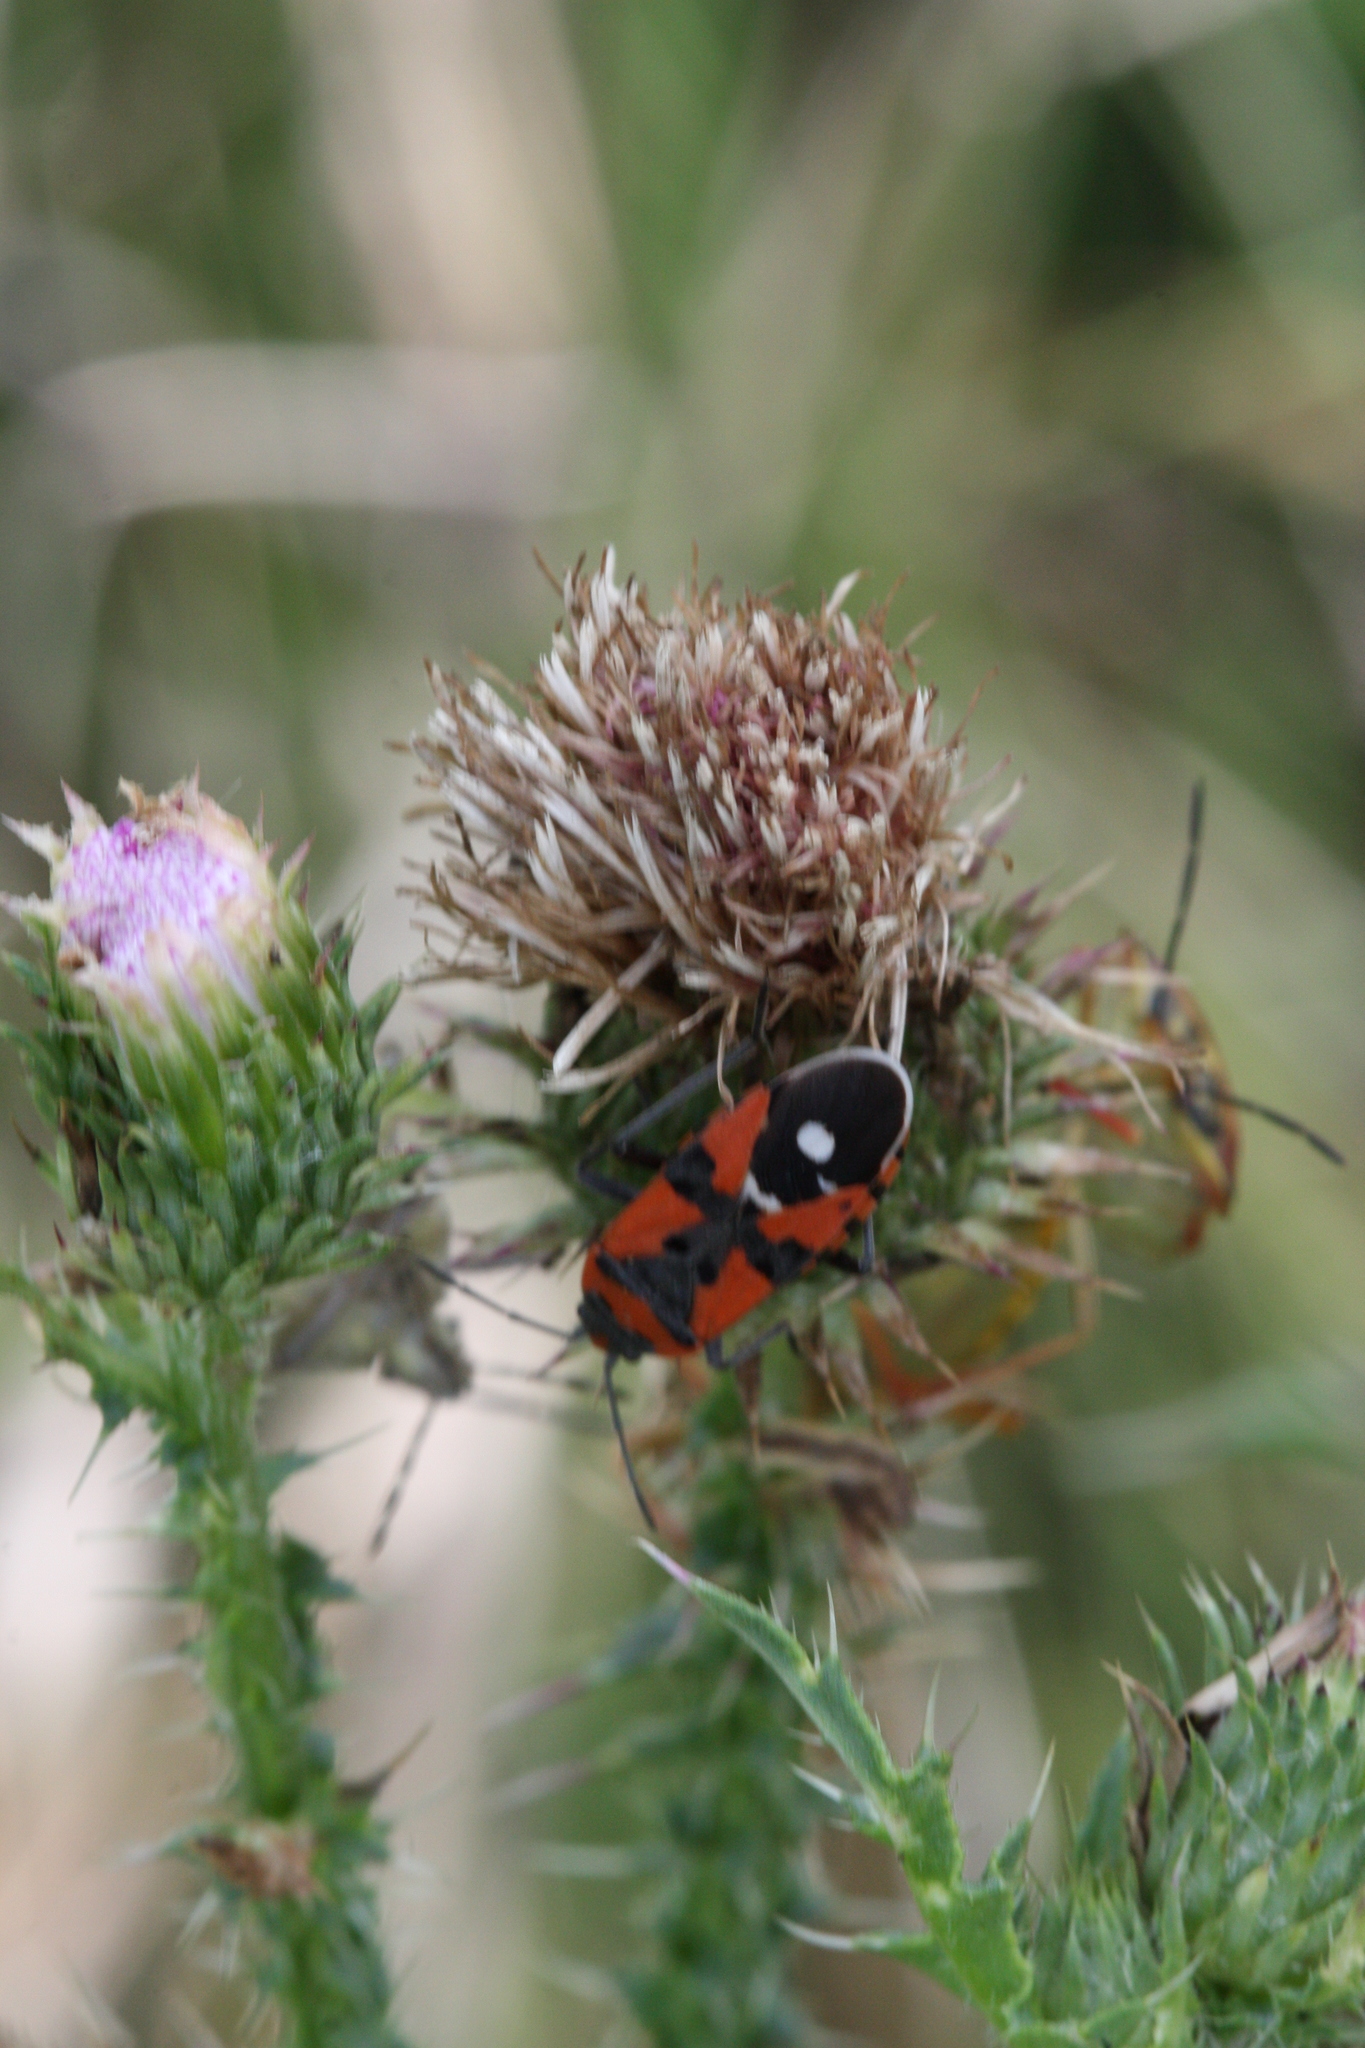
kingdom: Animalia
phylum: Arthropoda
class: Insecta
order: Hemiptera
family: Lygaeidae
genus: Lygaeus
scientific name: Lygaeus equestris
